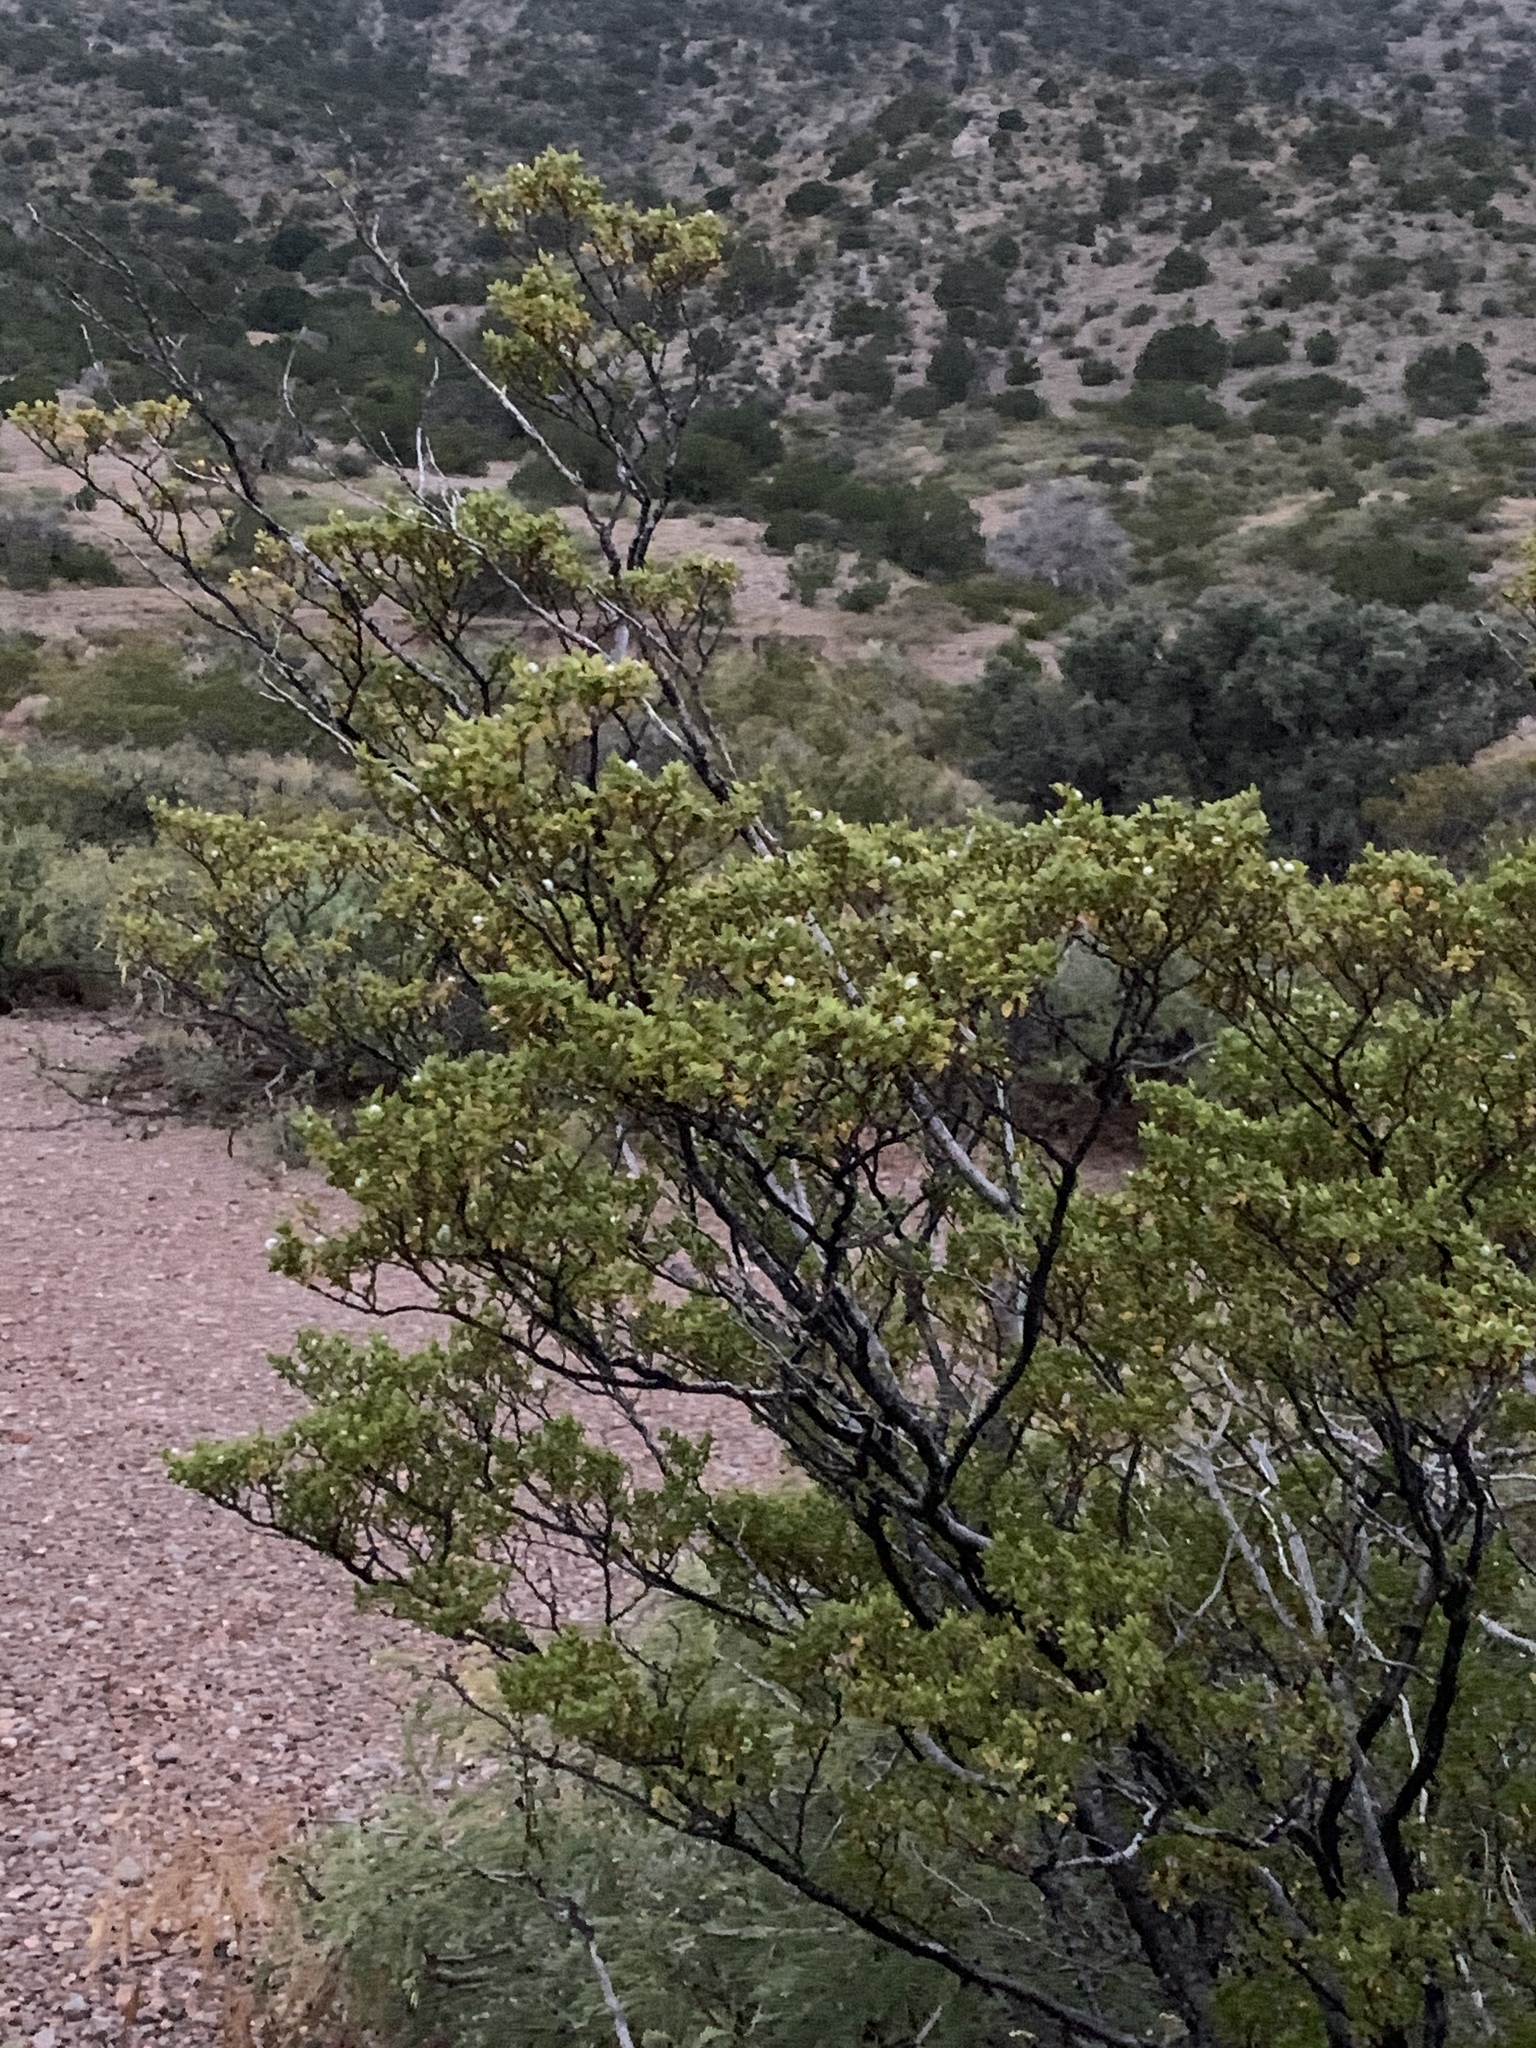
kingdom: Plantae
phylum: Tracheophyta
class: Magnoliopsida
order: Zygophyllales
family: Zygophyllaceae
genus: Larrea
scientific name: Larrea tridentata
